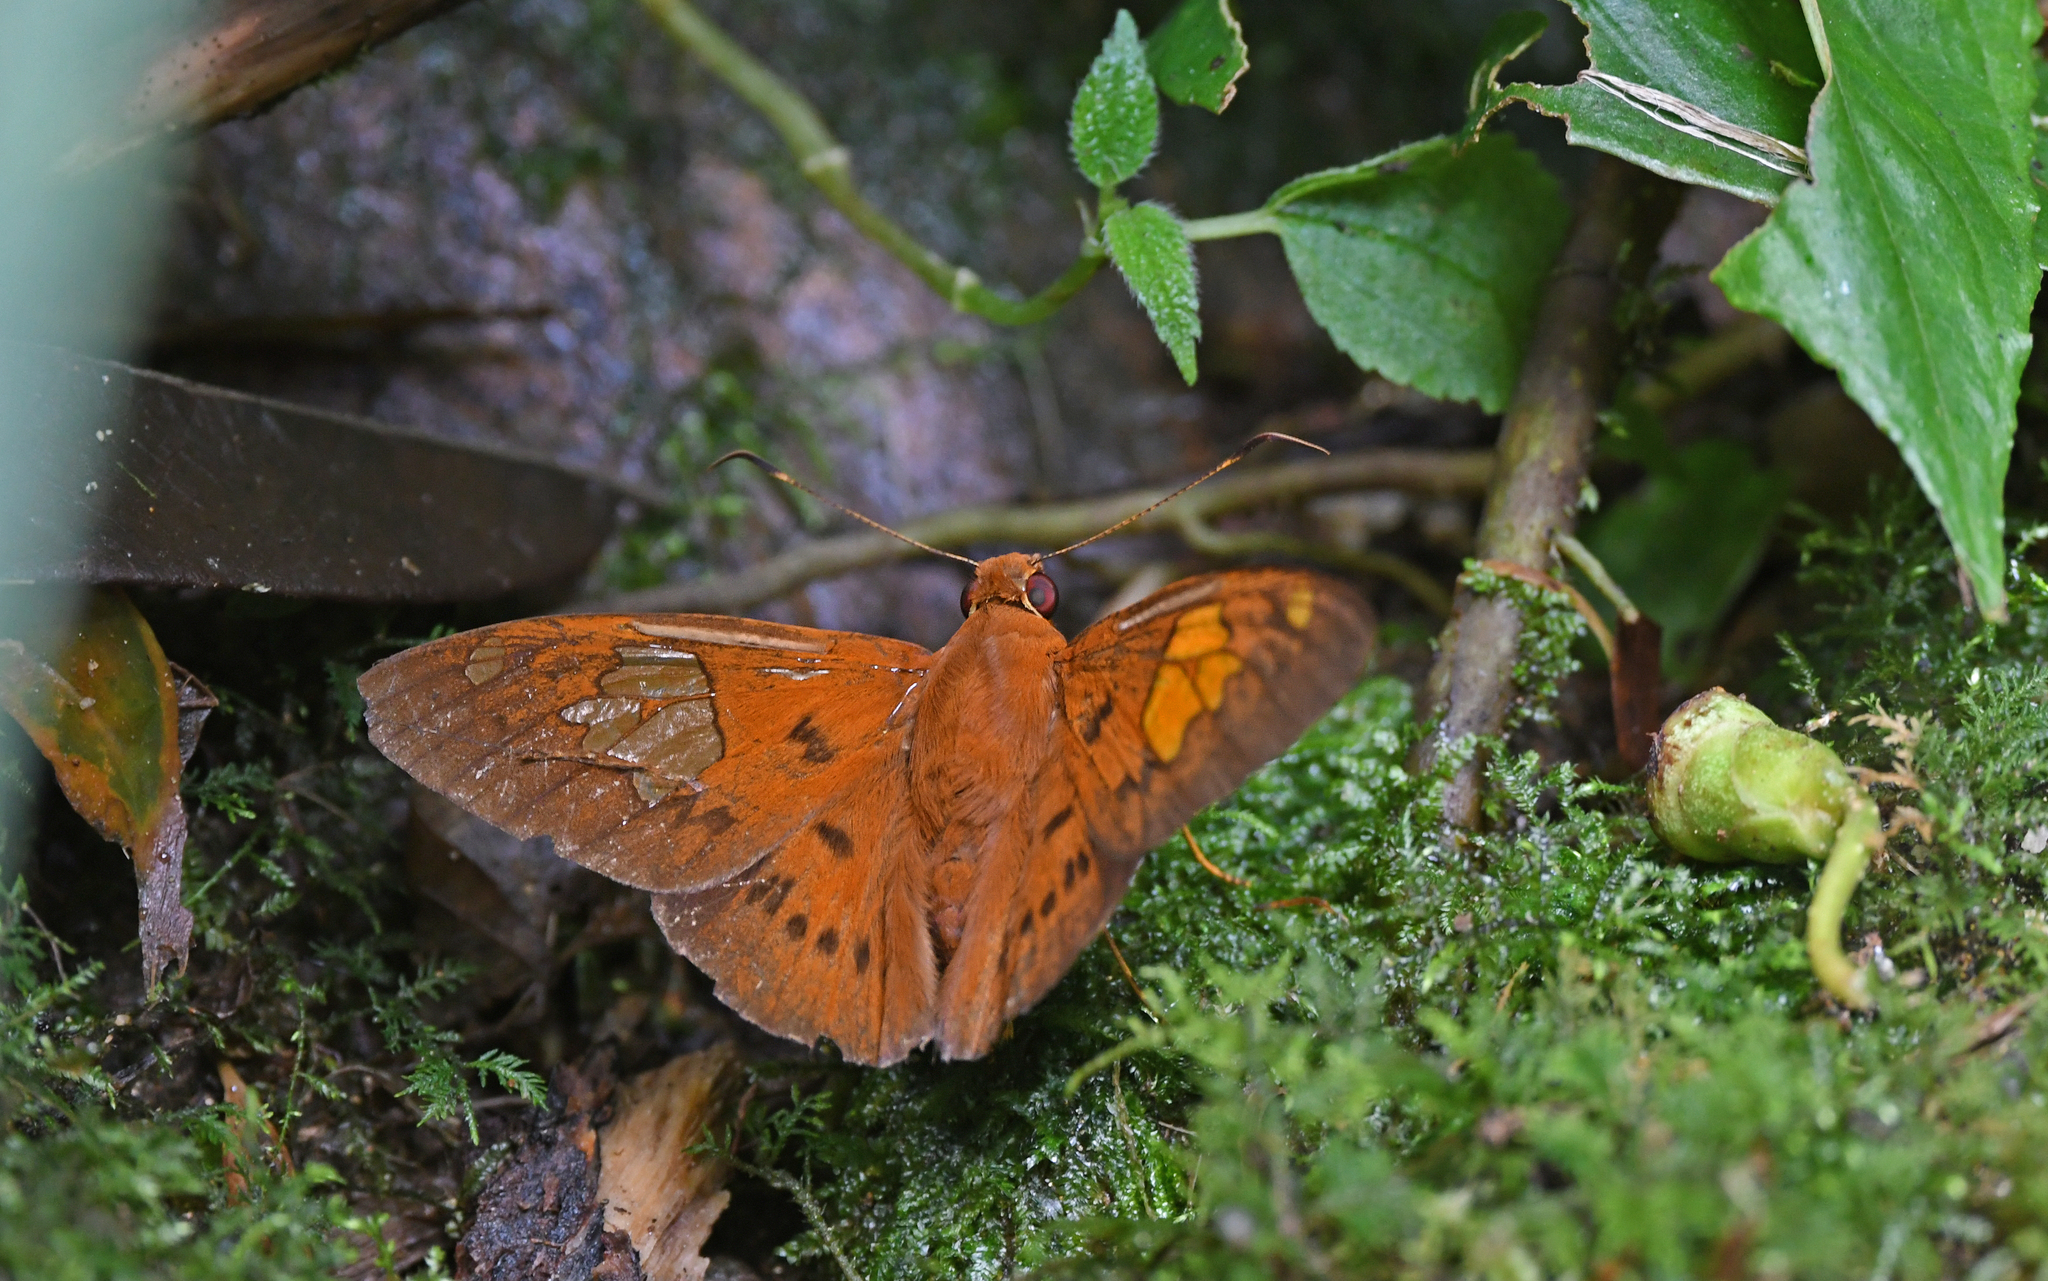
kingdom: Animalia
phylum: Arthropoda
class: Insecta
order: Lepidoptera
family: Hesperiidae
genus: Dyscophellus
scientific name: Dyscophellus euribates
